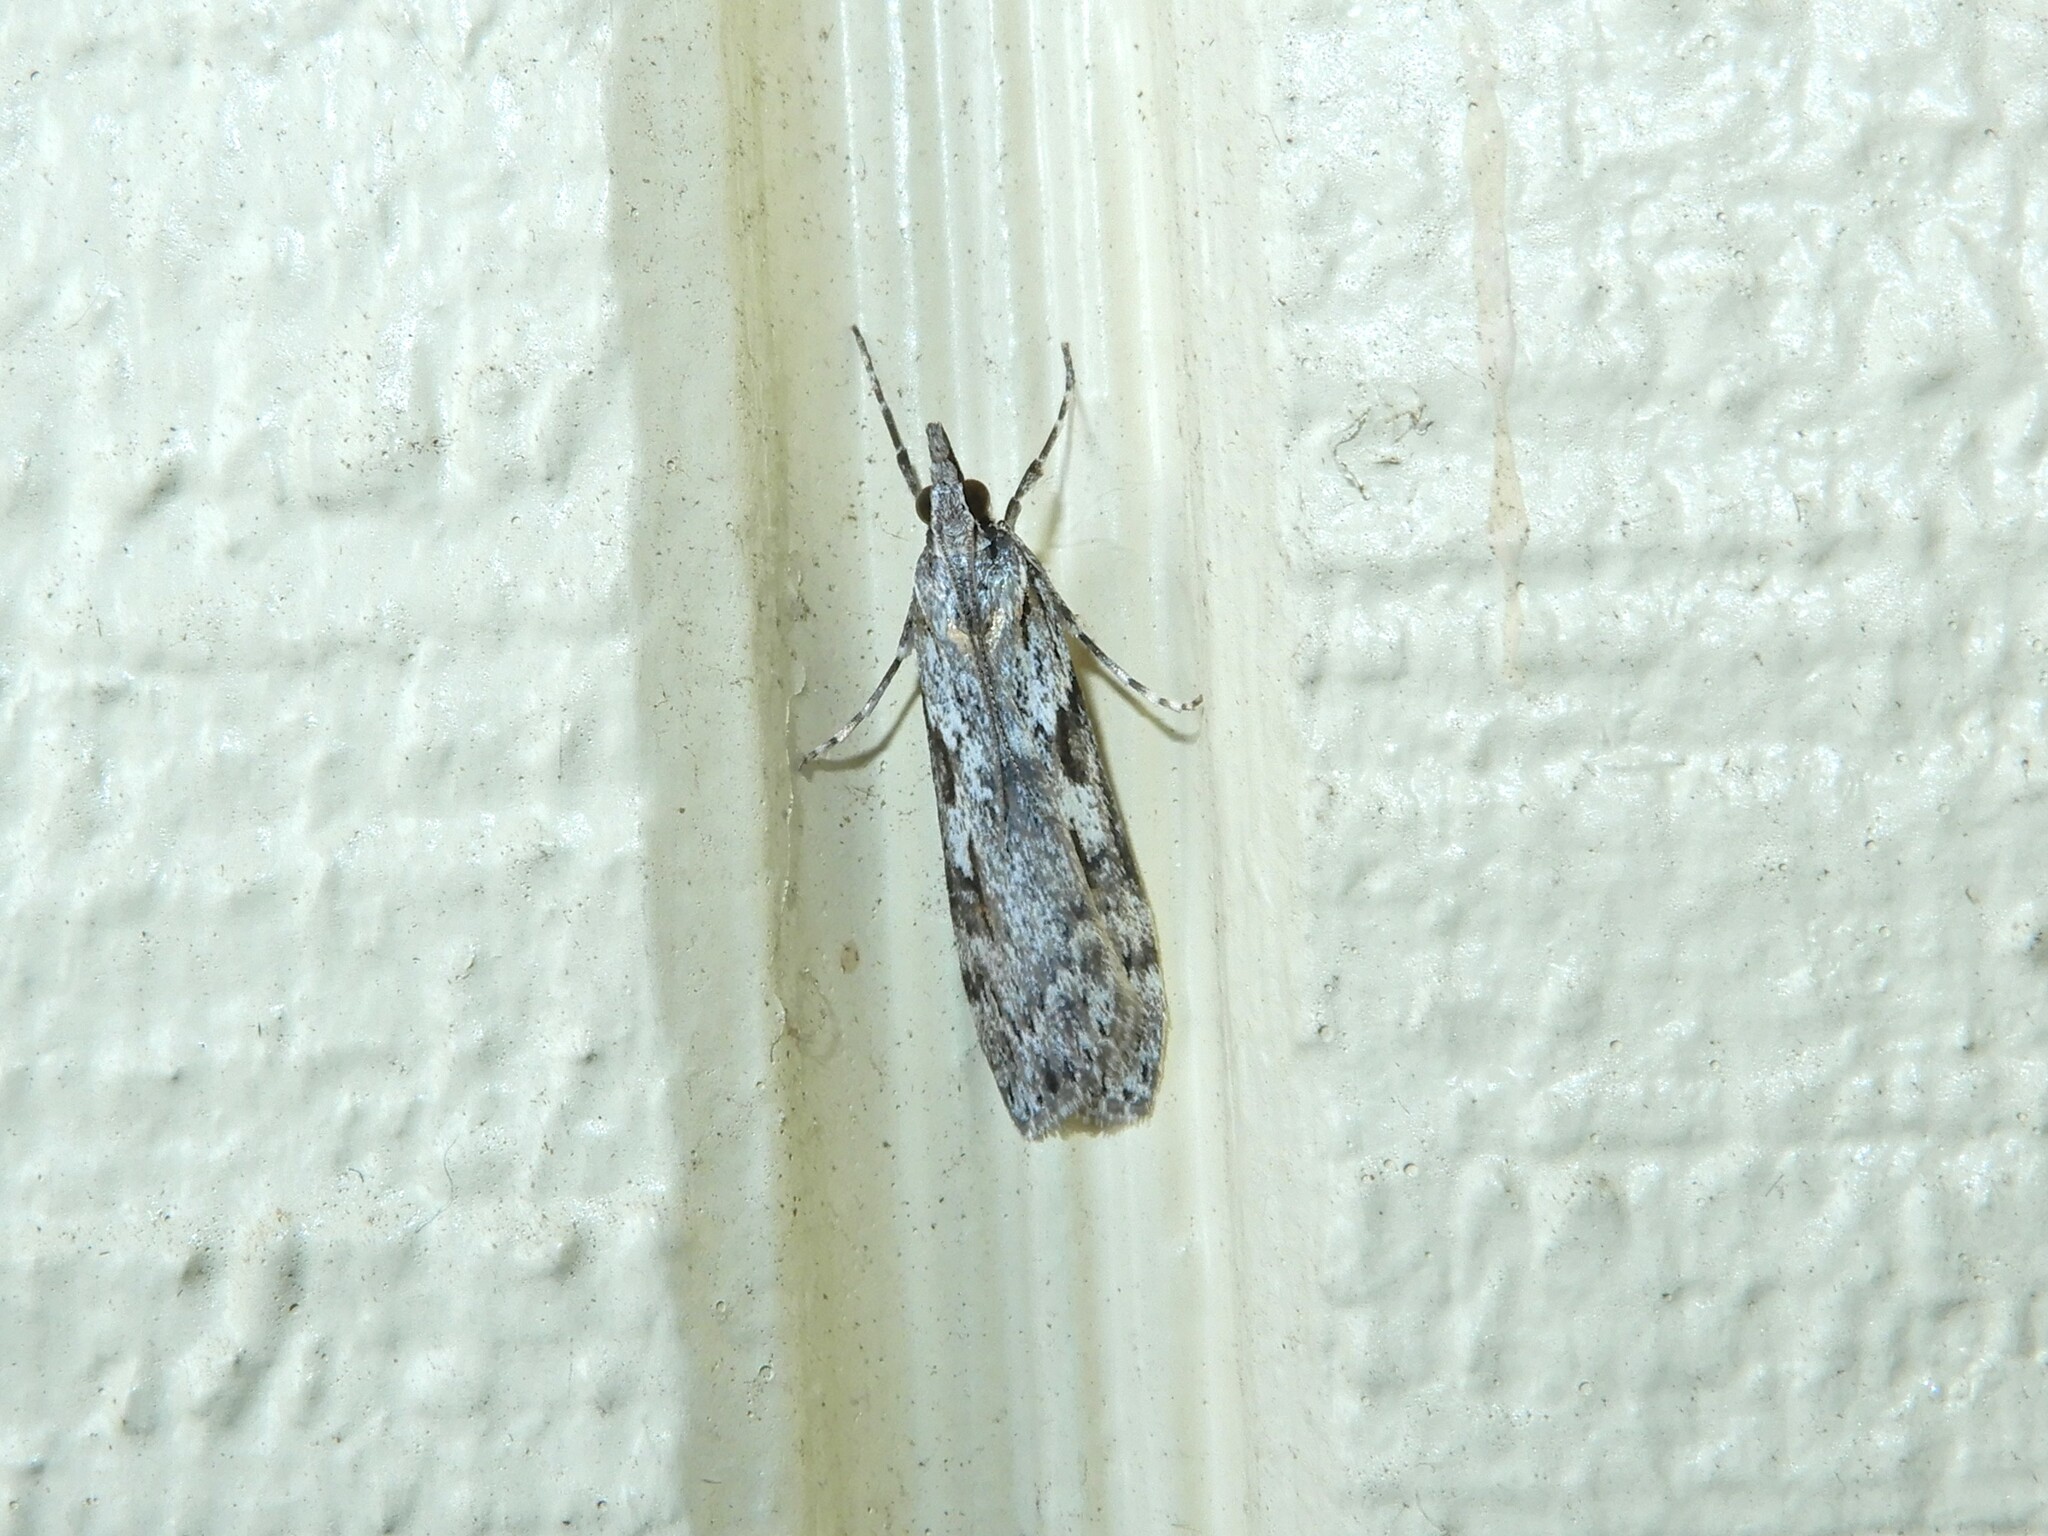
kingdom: Animalia
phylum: Arthropoda
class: Insecta
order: Lepidoptera
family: Crambidae
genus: Scoparia
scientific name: Scoparia halopis
